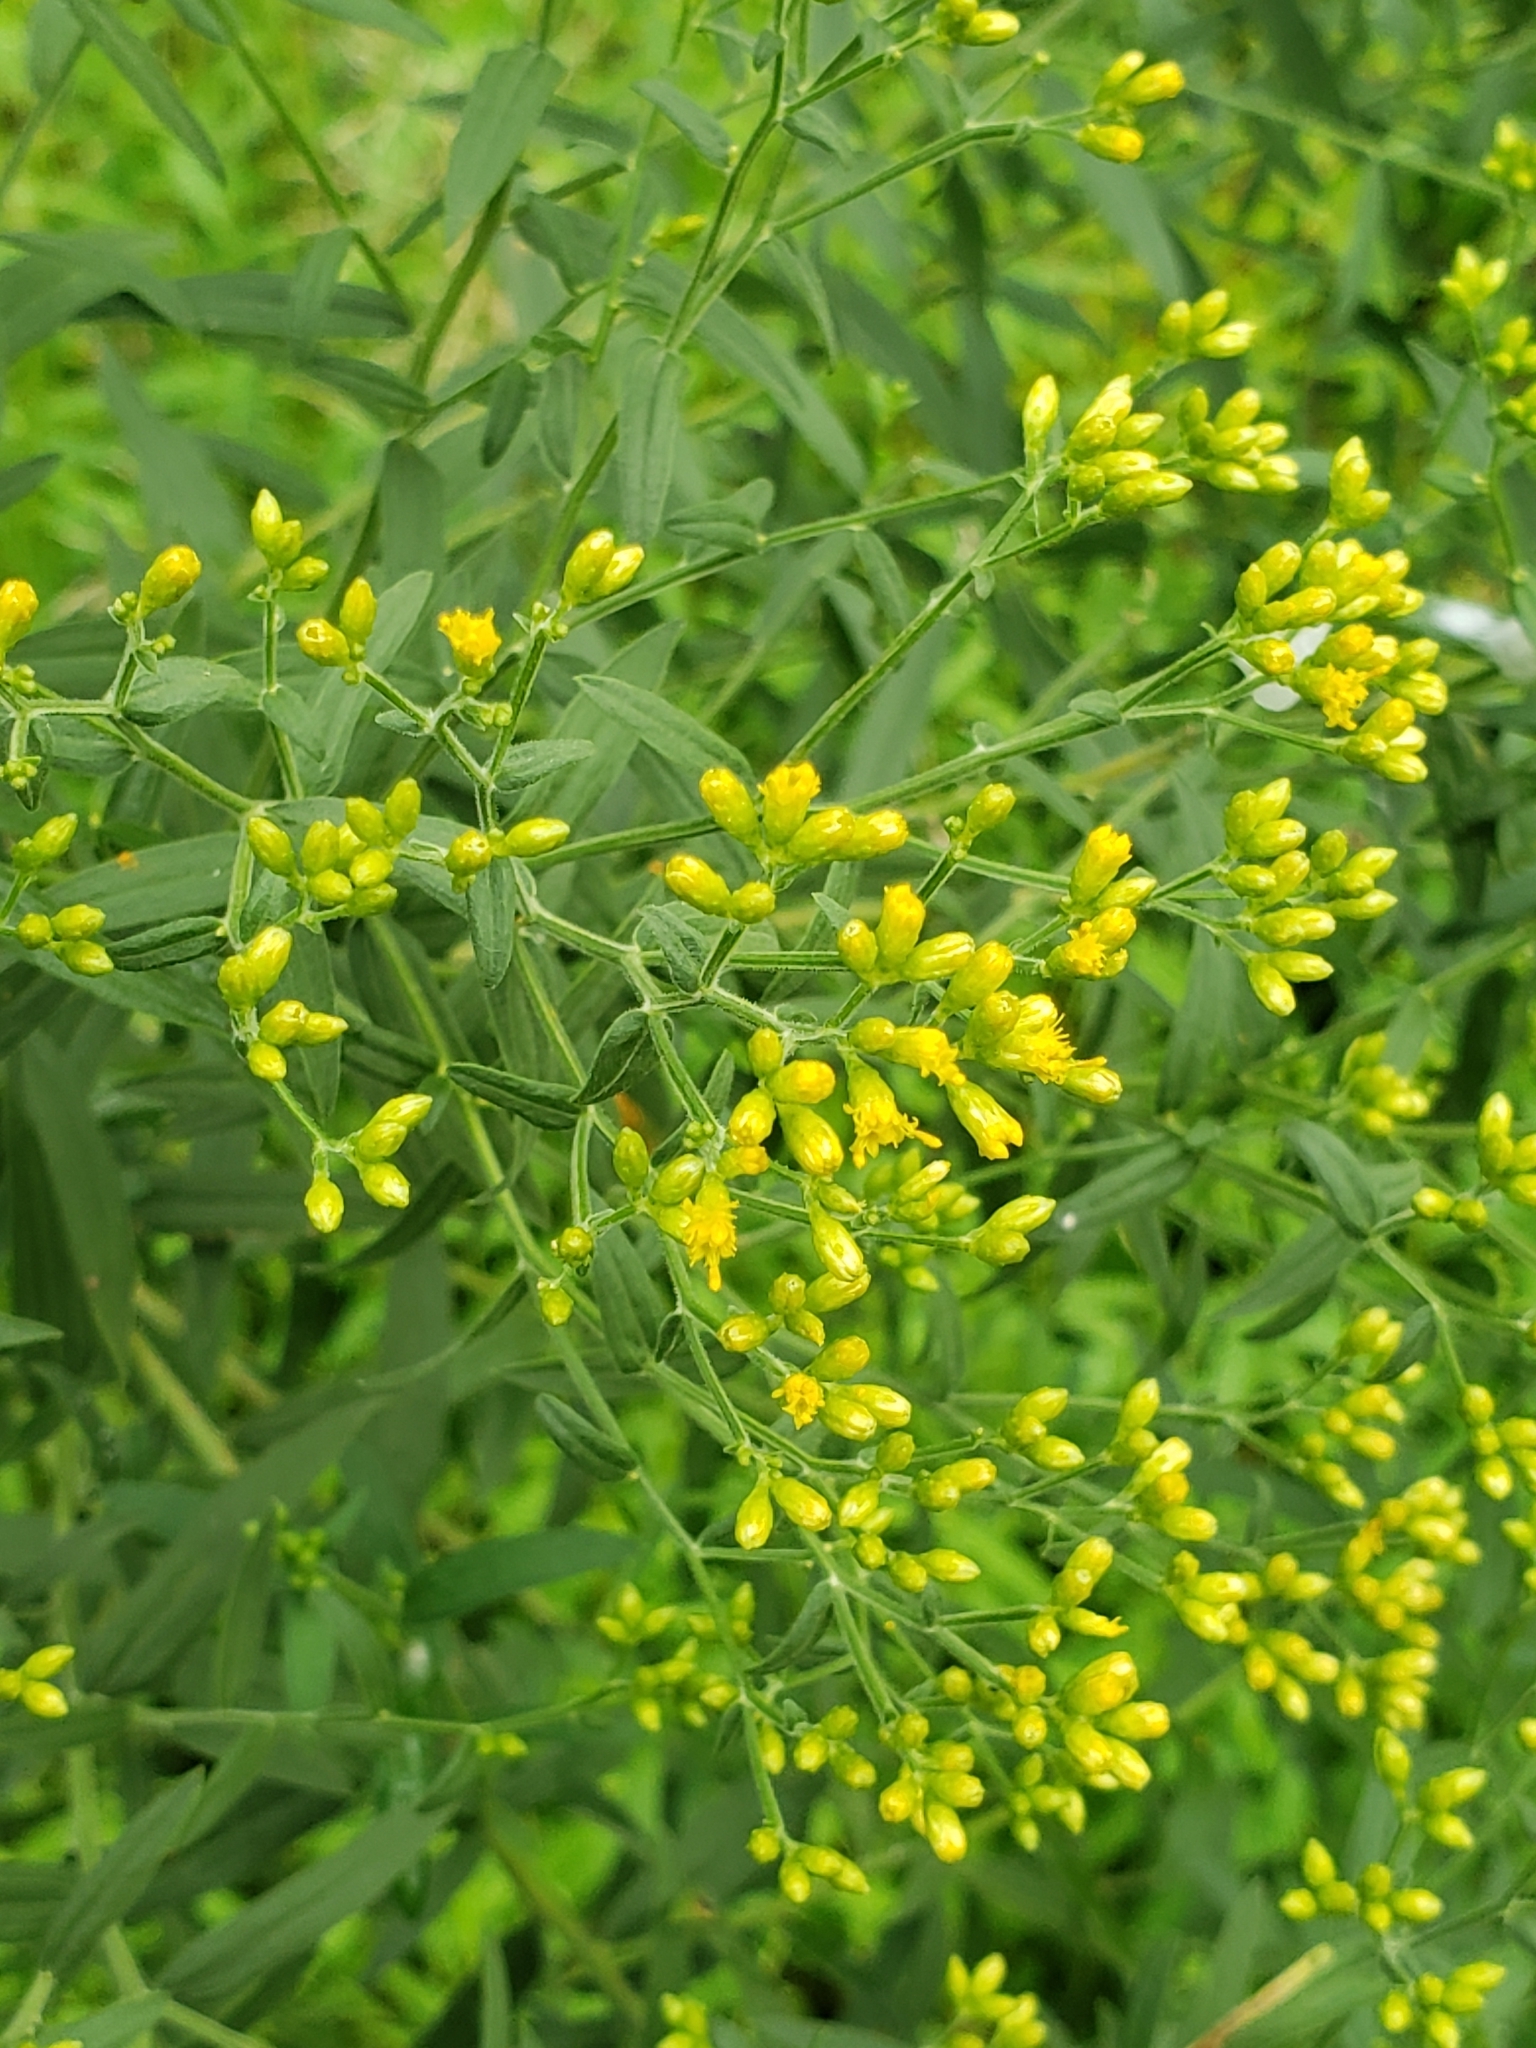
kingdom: Plantae
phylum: Tracheophyta
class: Magnoliopsida
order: Asterales
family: Asteraceae
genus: Euthamia
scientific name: Euthamia graminifolia
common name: Common goldentop
